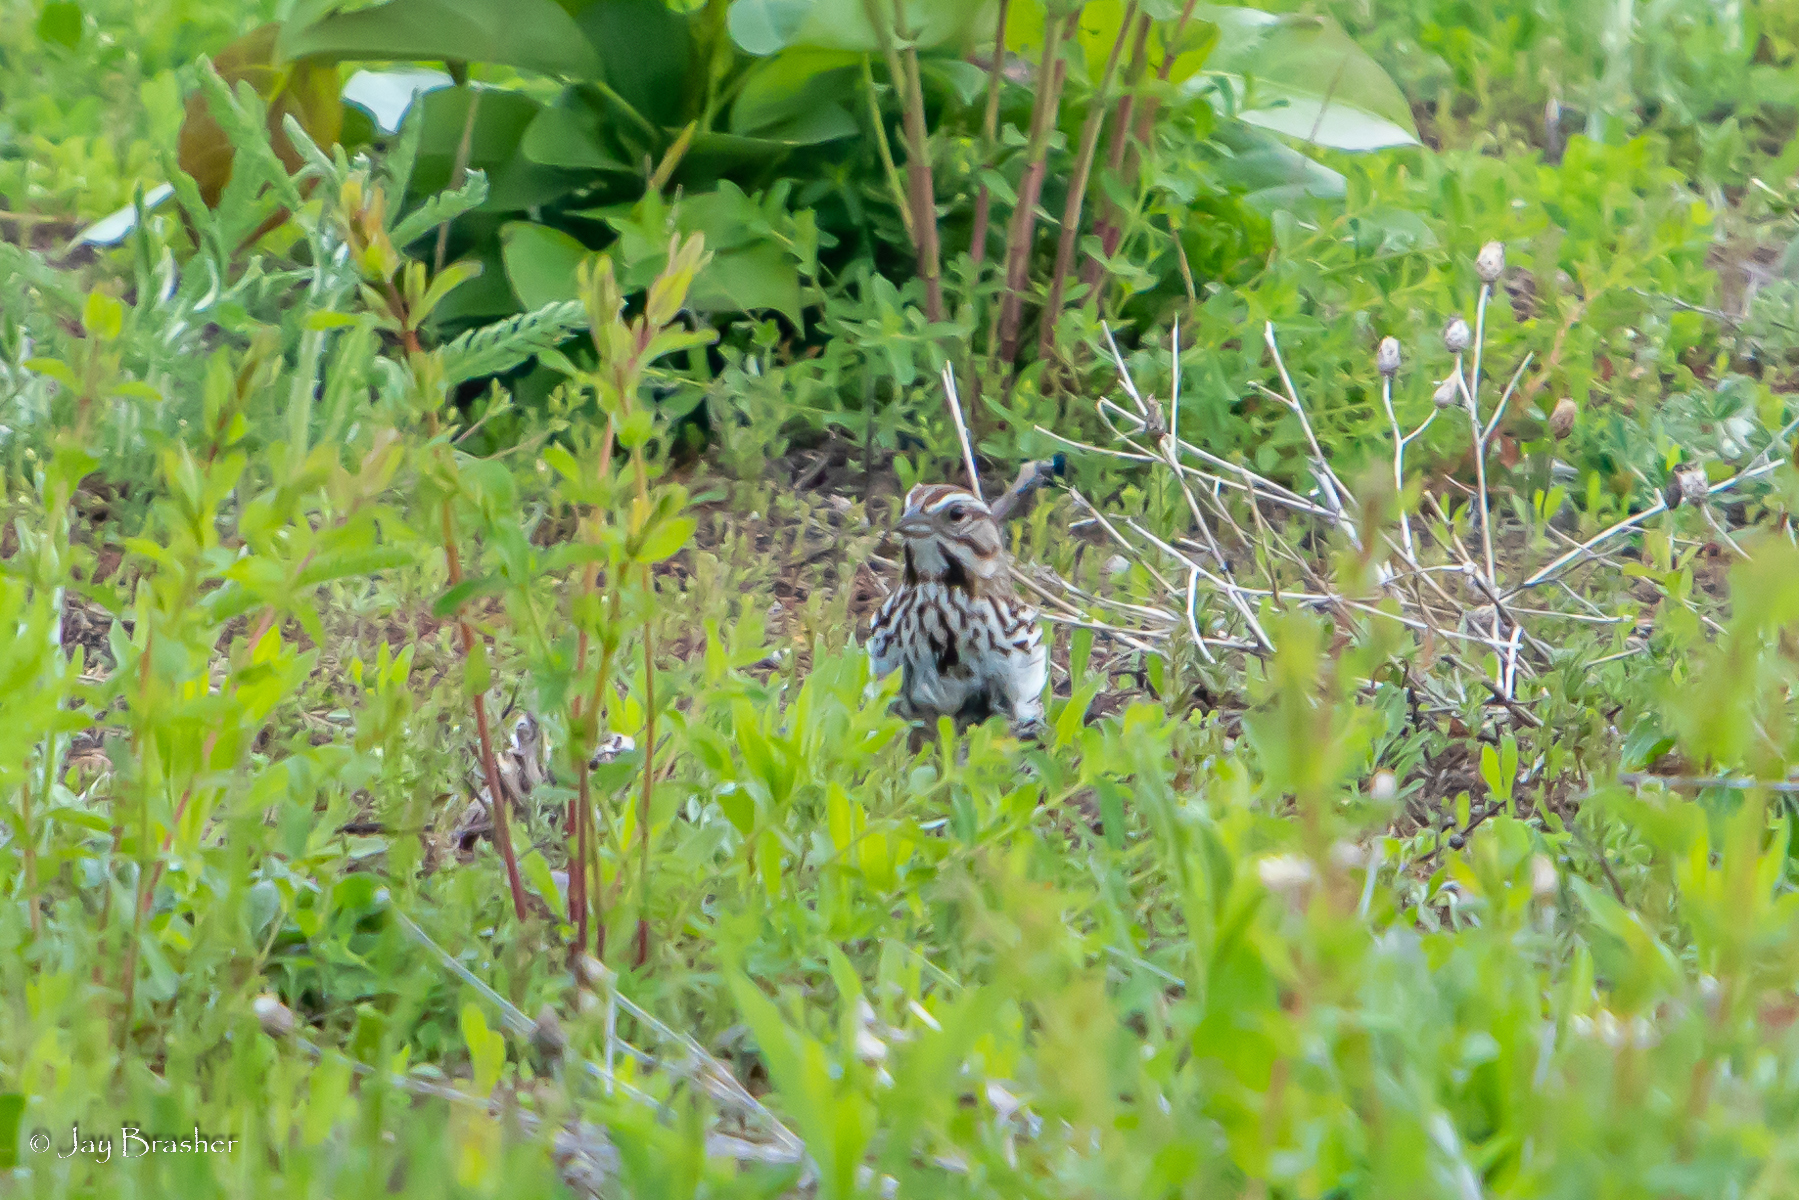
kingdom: Animalia
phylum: Chordata
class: Aves
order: Passeriformes
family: Passerellidae
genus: Melospiza
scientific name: Melospiza melodia
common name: Song sparrow
